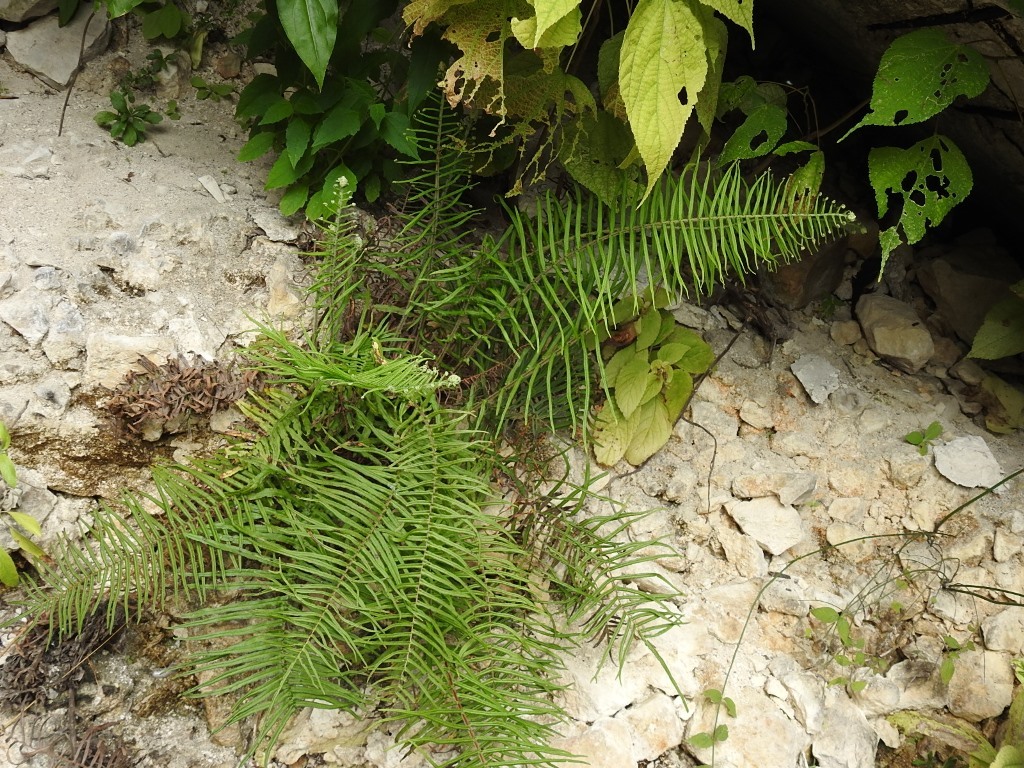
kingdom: Plantae
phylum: Tracheophyta
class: Polypodiopsida
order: Polypodiales
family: Pteridaceae
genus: Pteris
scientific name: Pteris longifolia
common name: Longleaf brake
